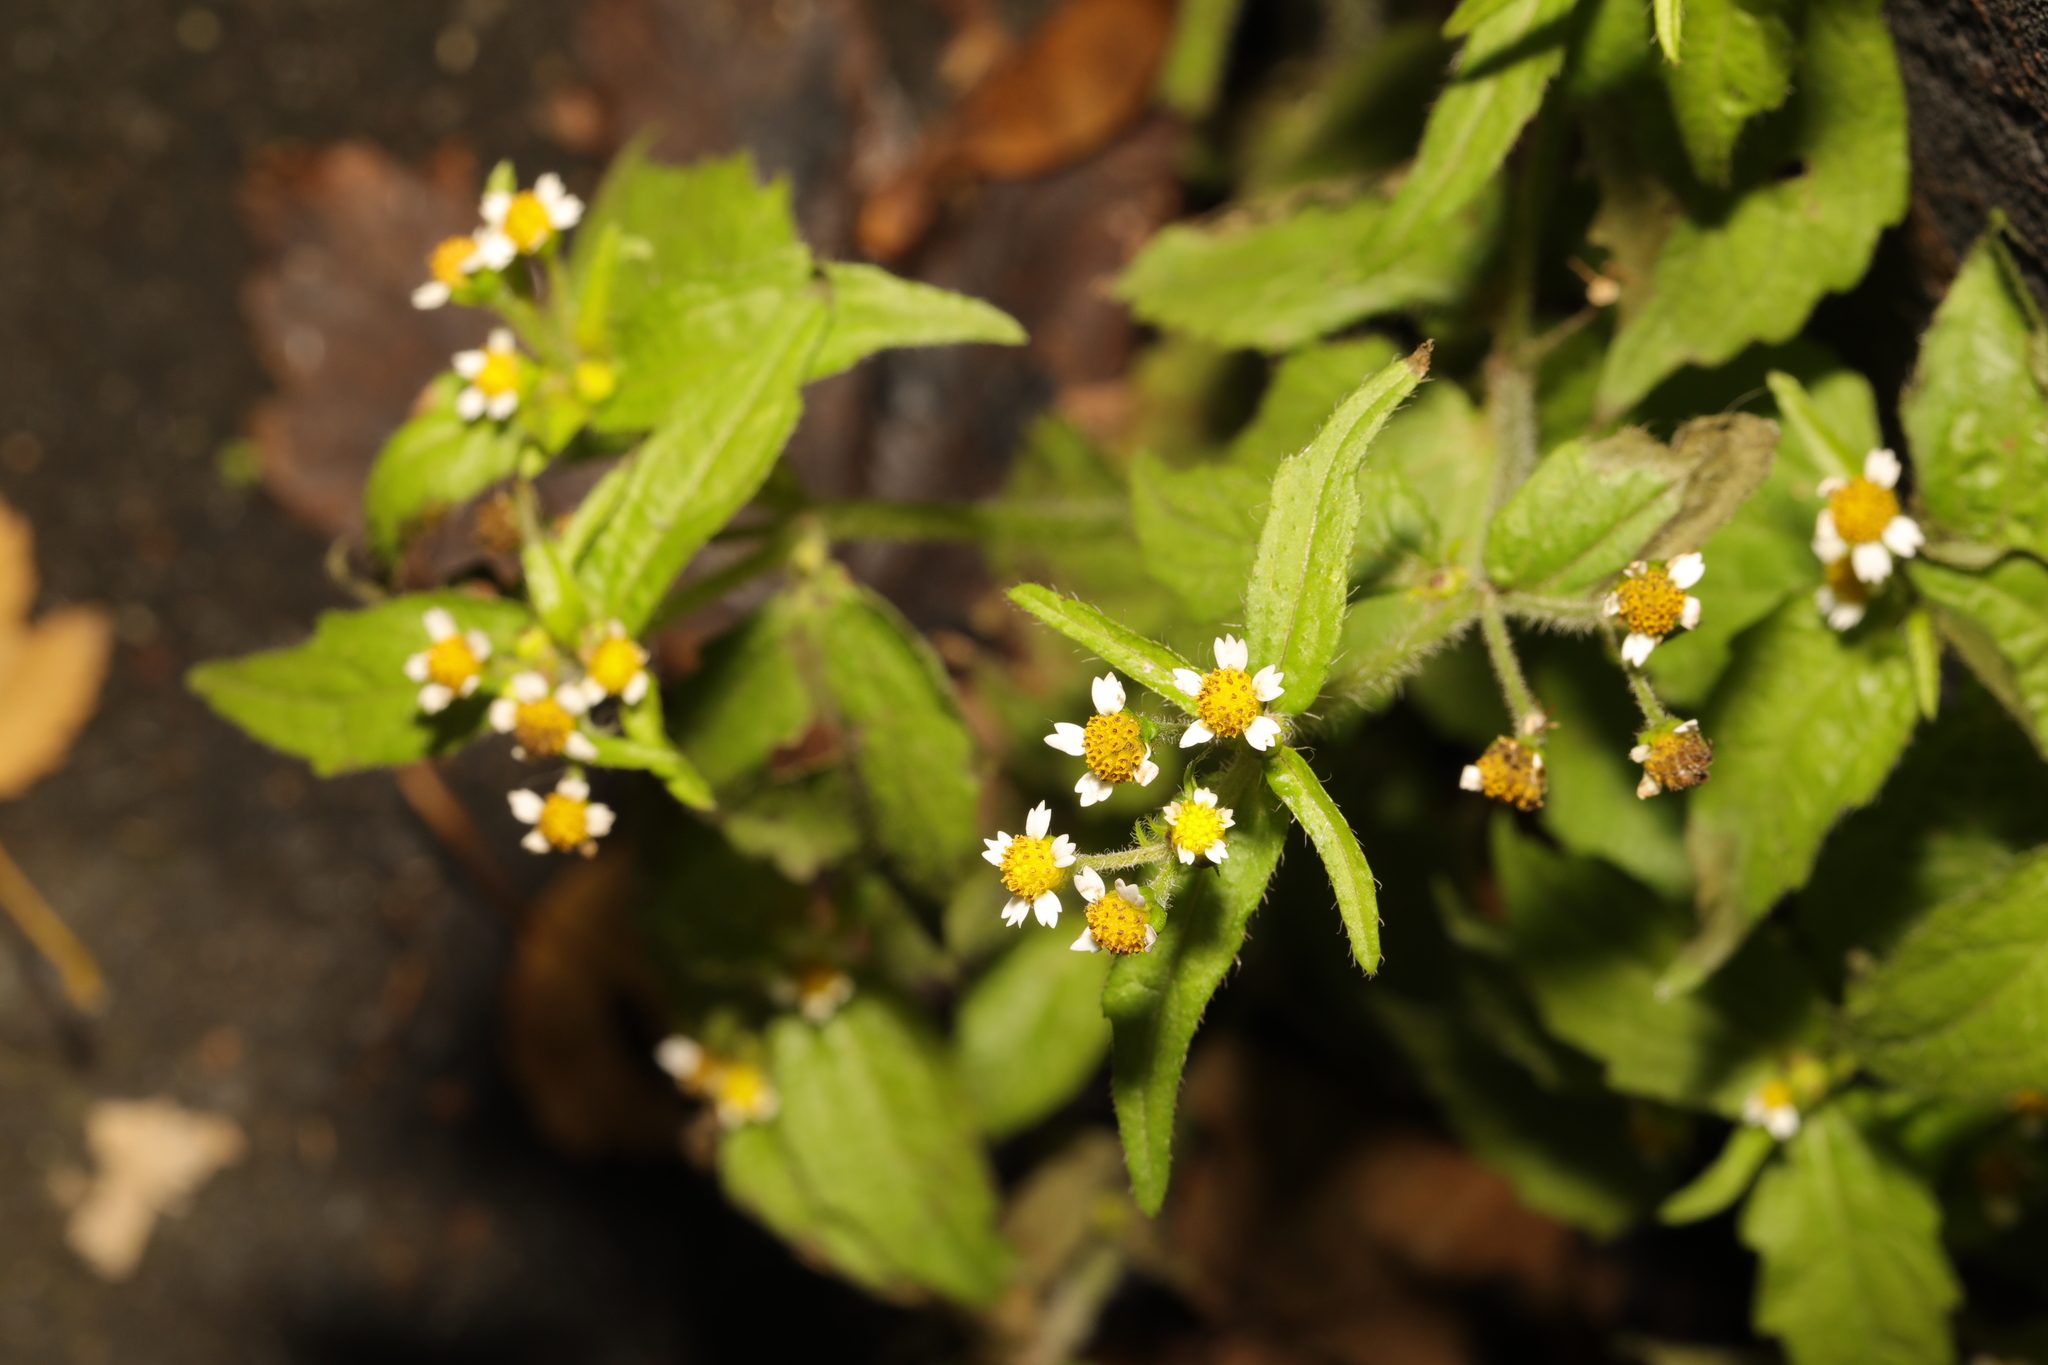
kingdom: Plantae
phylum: Tracheophyta
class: Magnoliopsida
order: Asterales
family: Asteraceae
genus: Galinsoga
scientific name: Galinsoga quadriradiata
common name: Shaggy soldier
